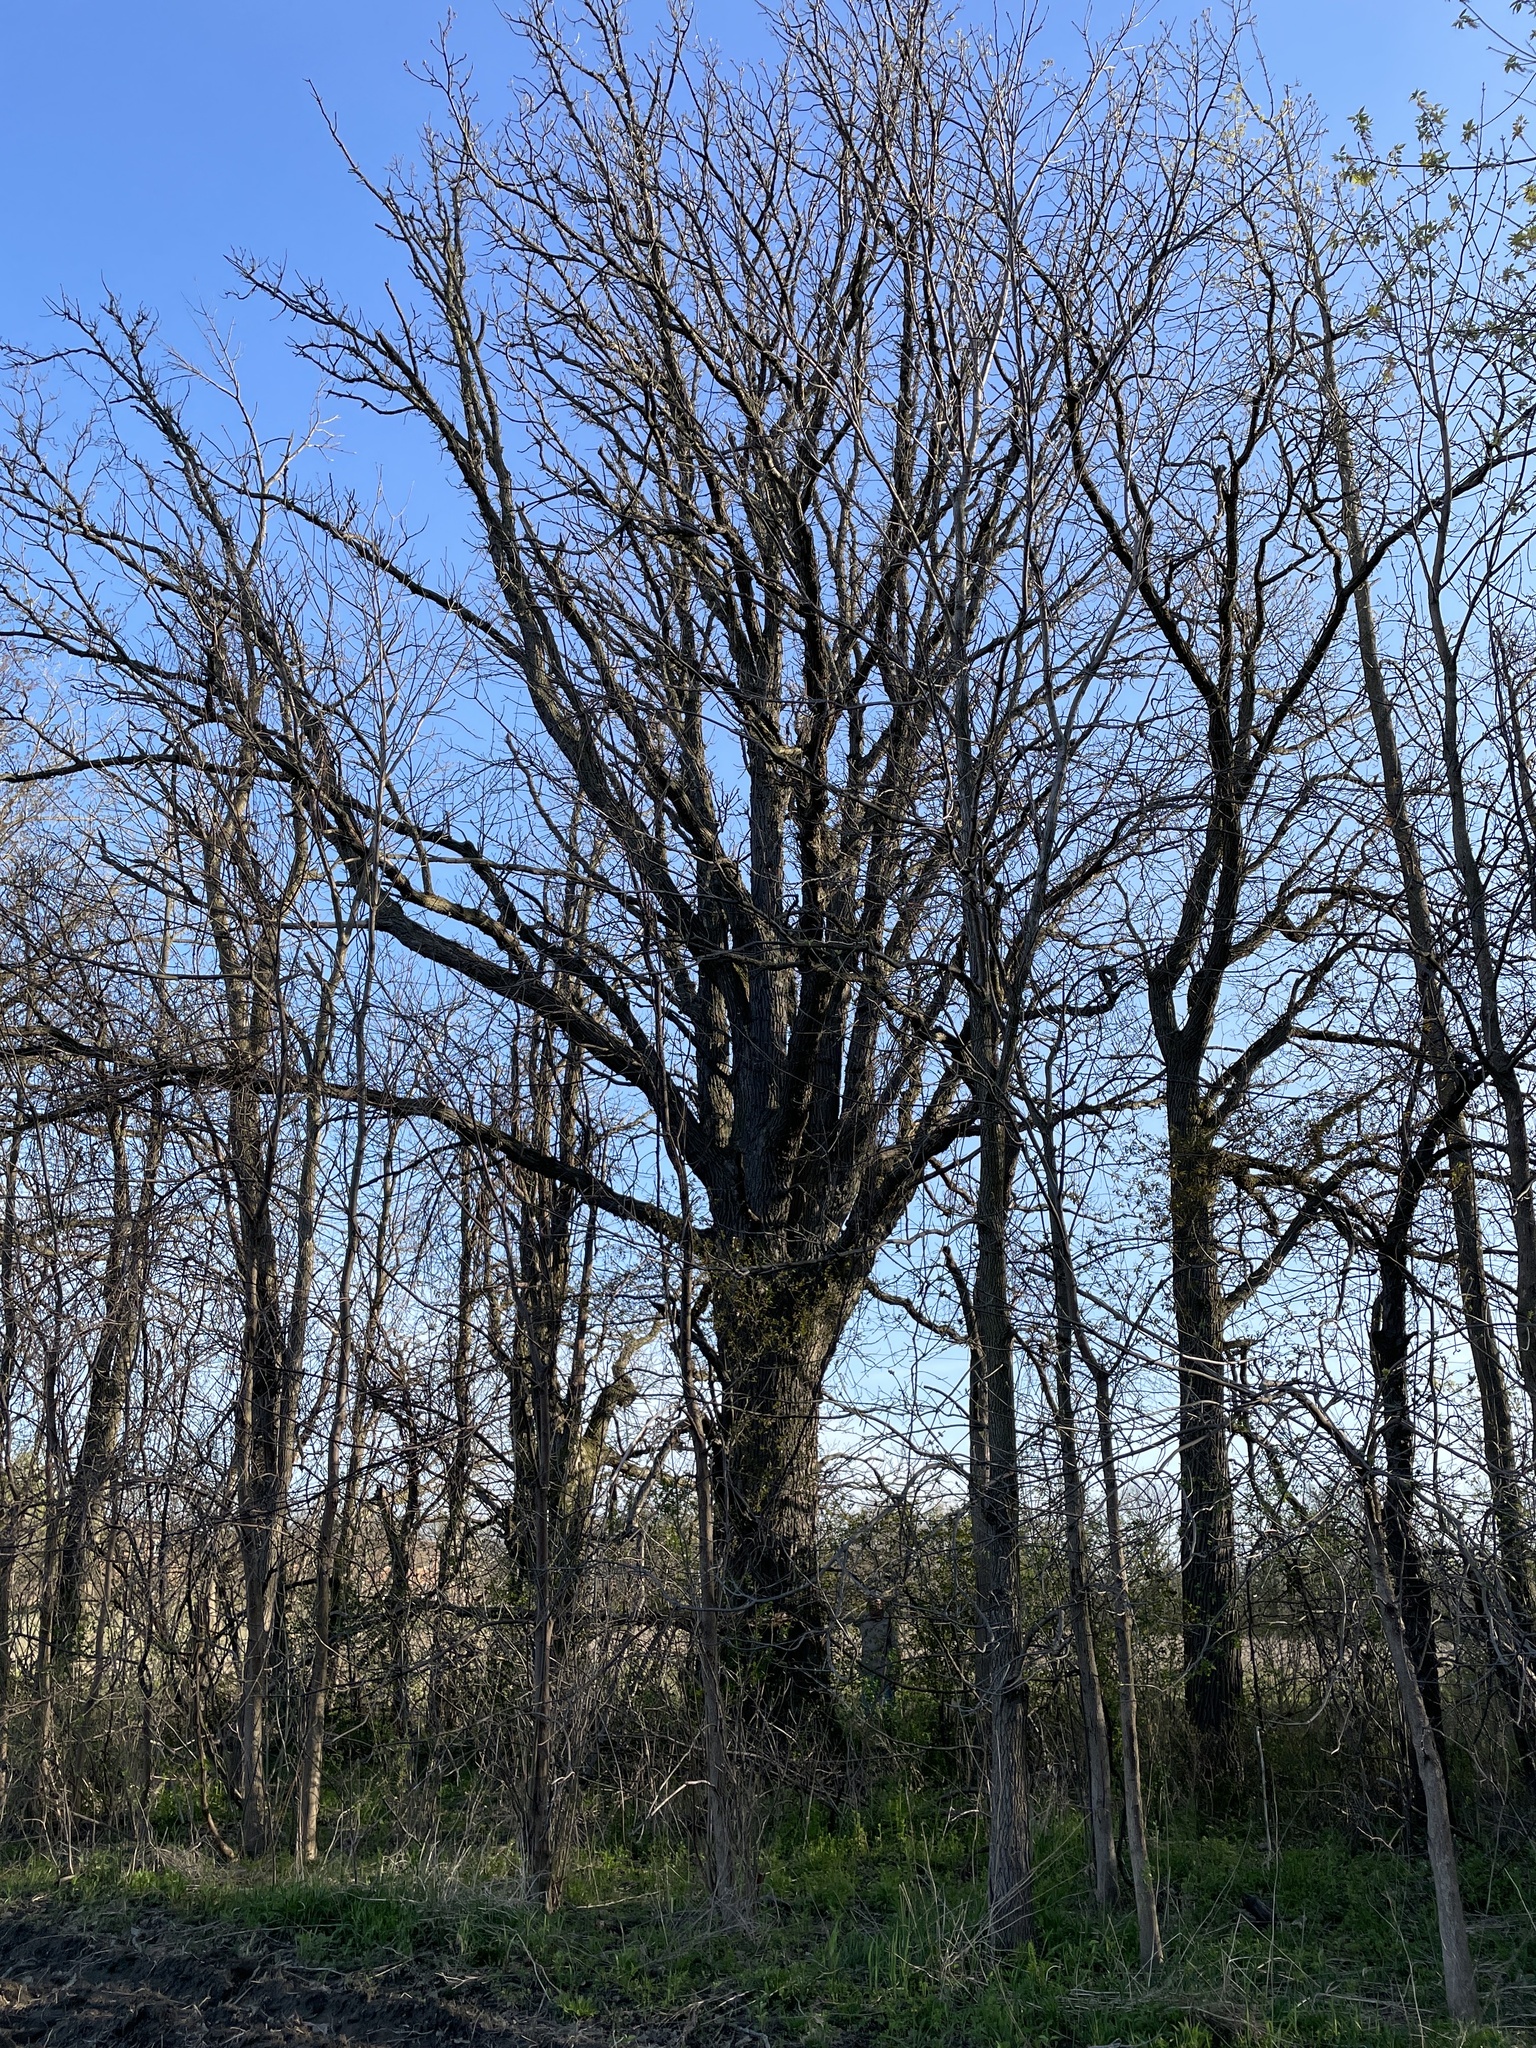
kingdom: Plantae
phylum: Tracheophyta
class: Magnoliopsida
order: Fagales
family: Fagaceae
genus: Quercus
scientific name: Quercus bicolor
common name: Swamp white oak
